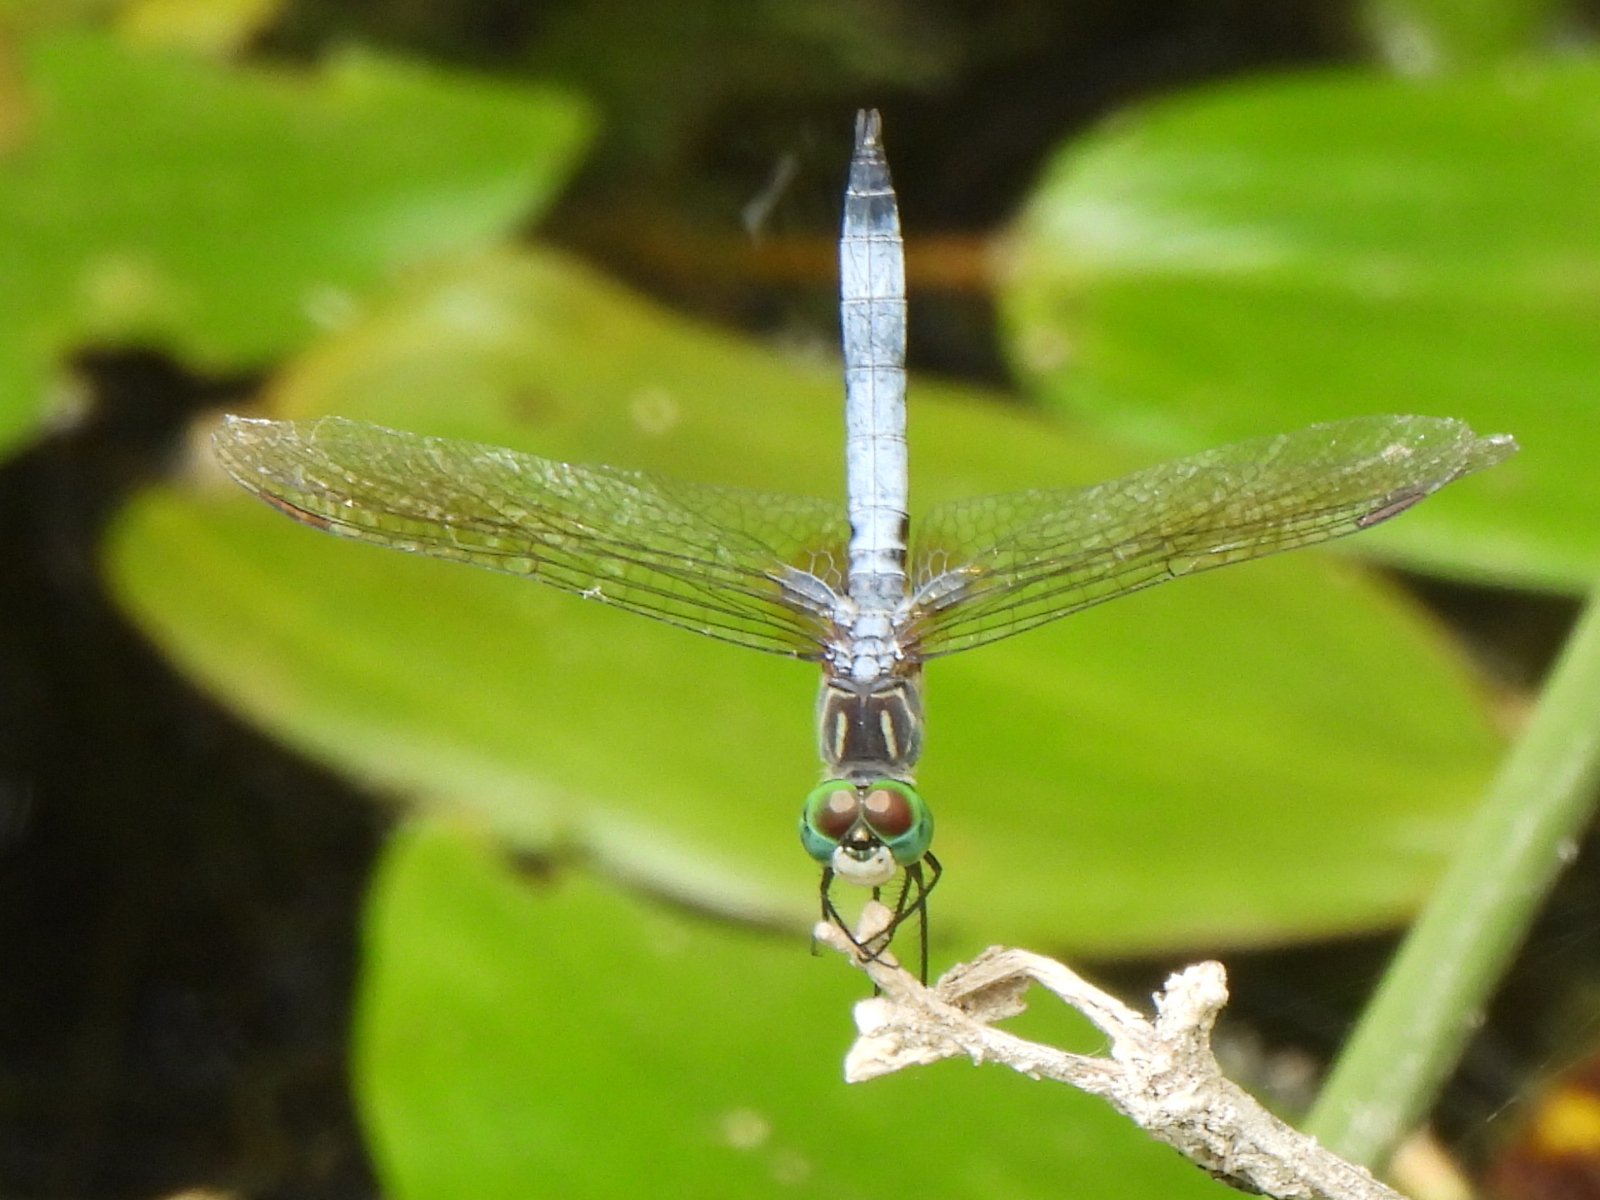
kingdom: Animalia
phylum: Arthropoda
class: Insecta
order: Odonata
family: Libellulidae
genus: Pachydiplax
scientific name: Pachydiplax longipennis
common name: Blue dasher
